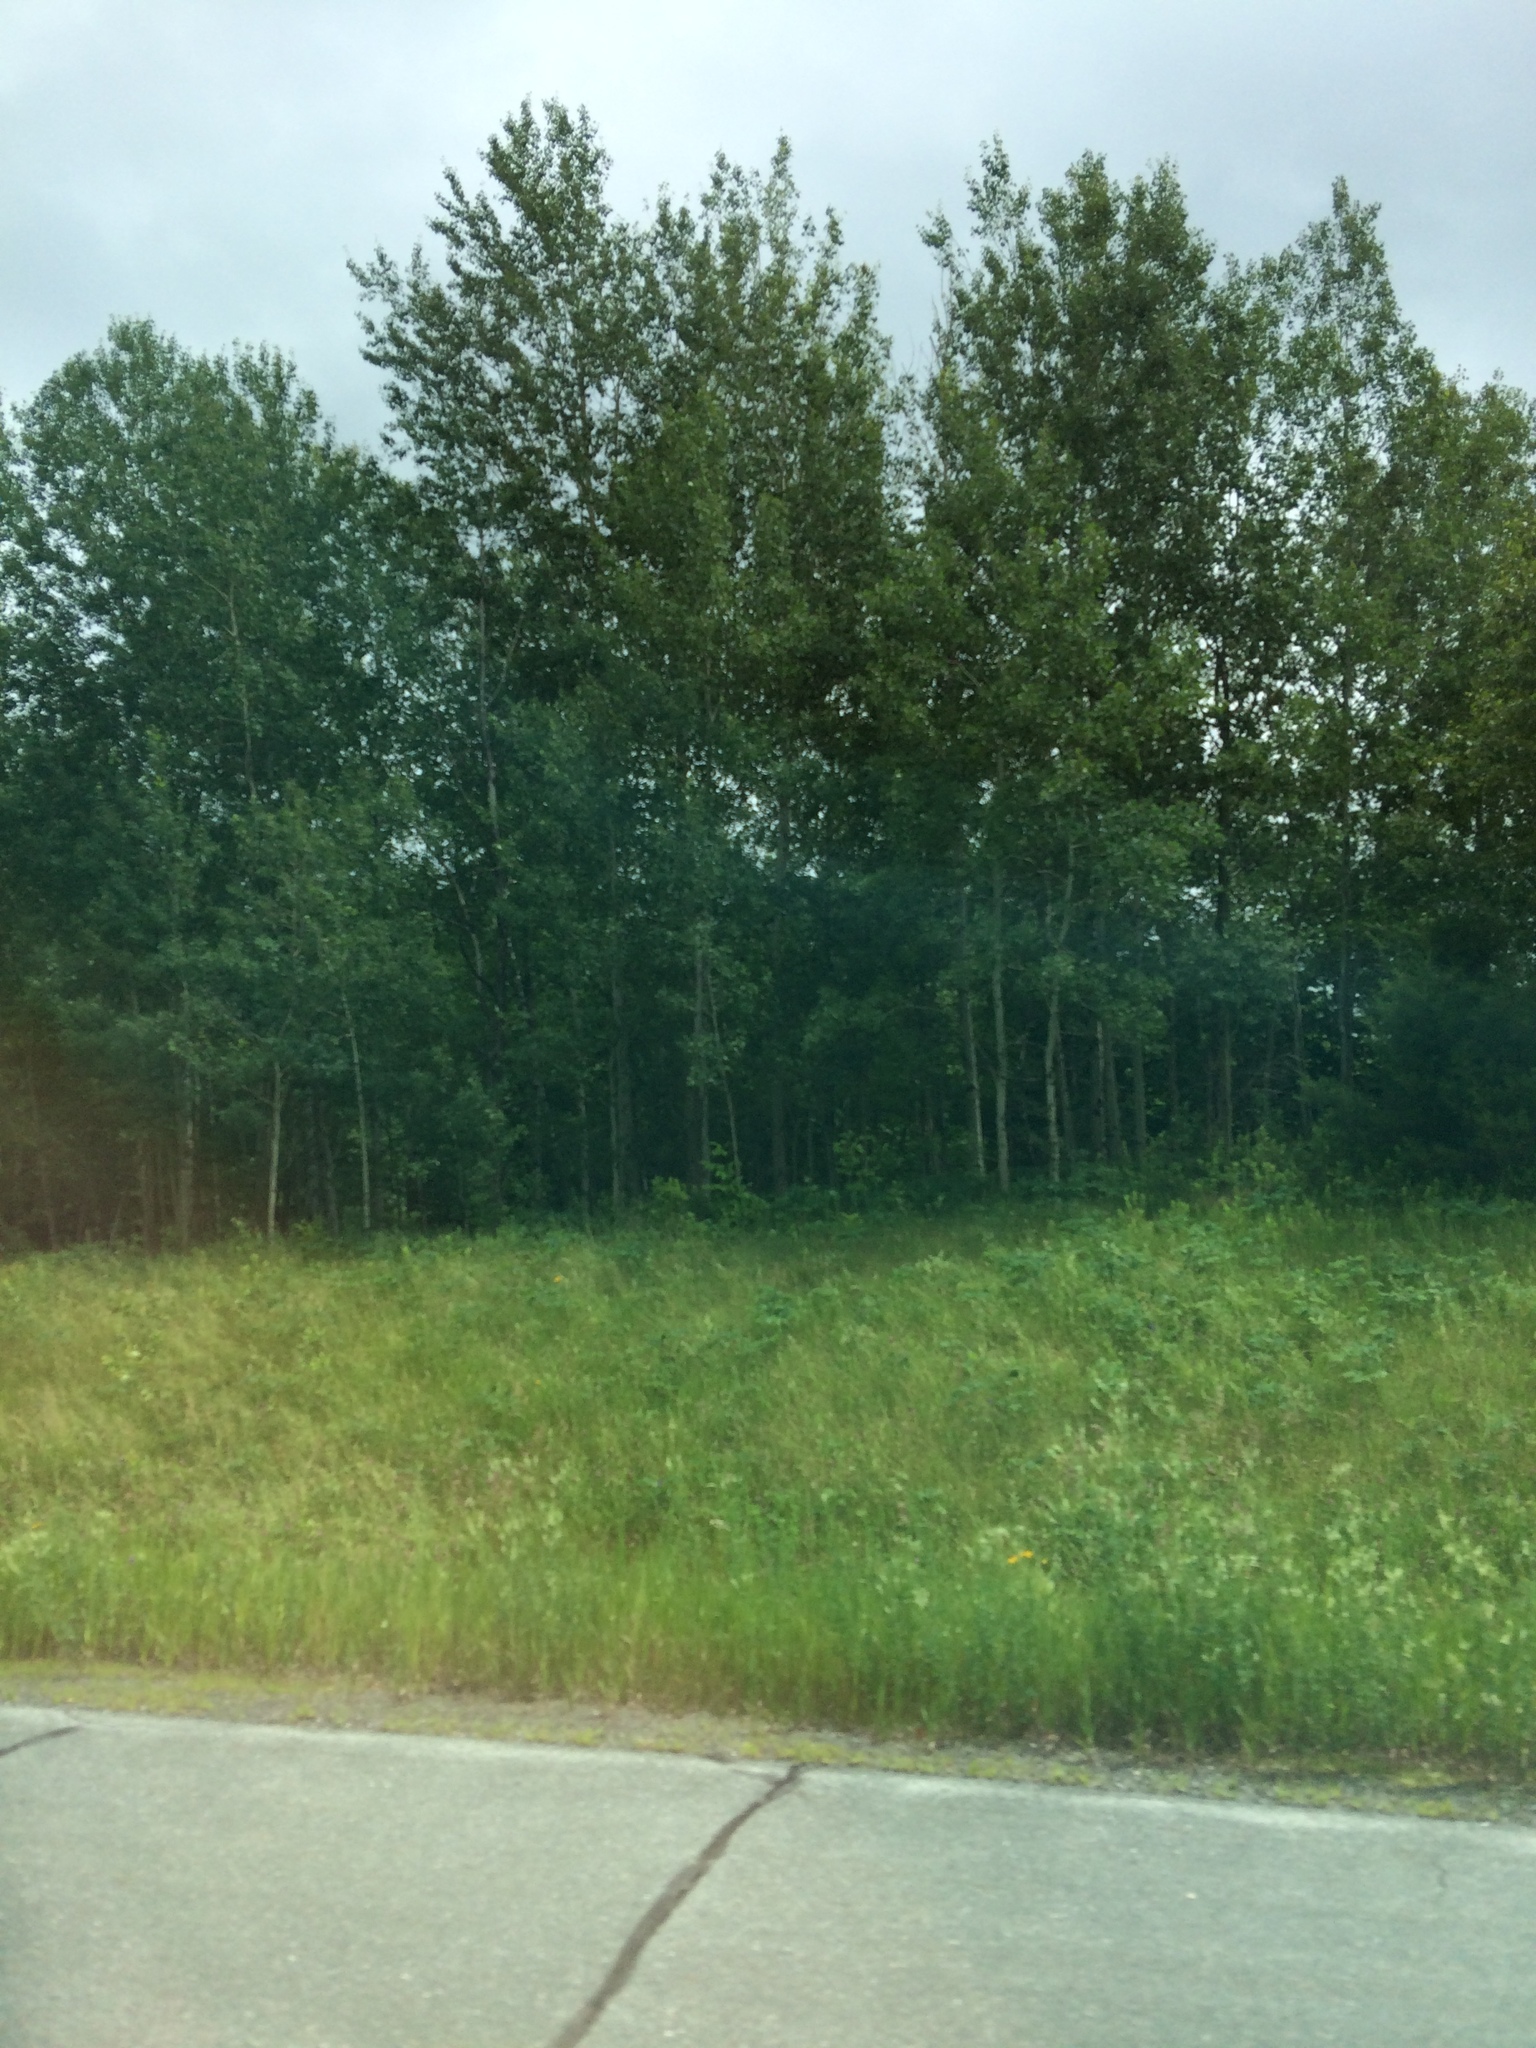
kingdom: Plantae
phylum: Tracheophyta
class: Magnoliopsida
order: Malpighiales
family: Salicaceae
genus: Populus
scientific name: Populus tremuloides
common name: Quaking aspen
